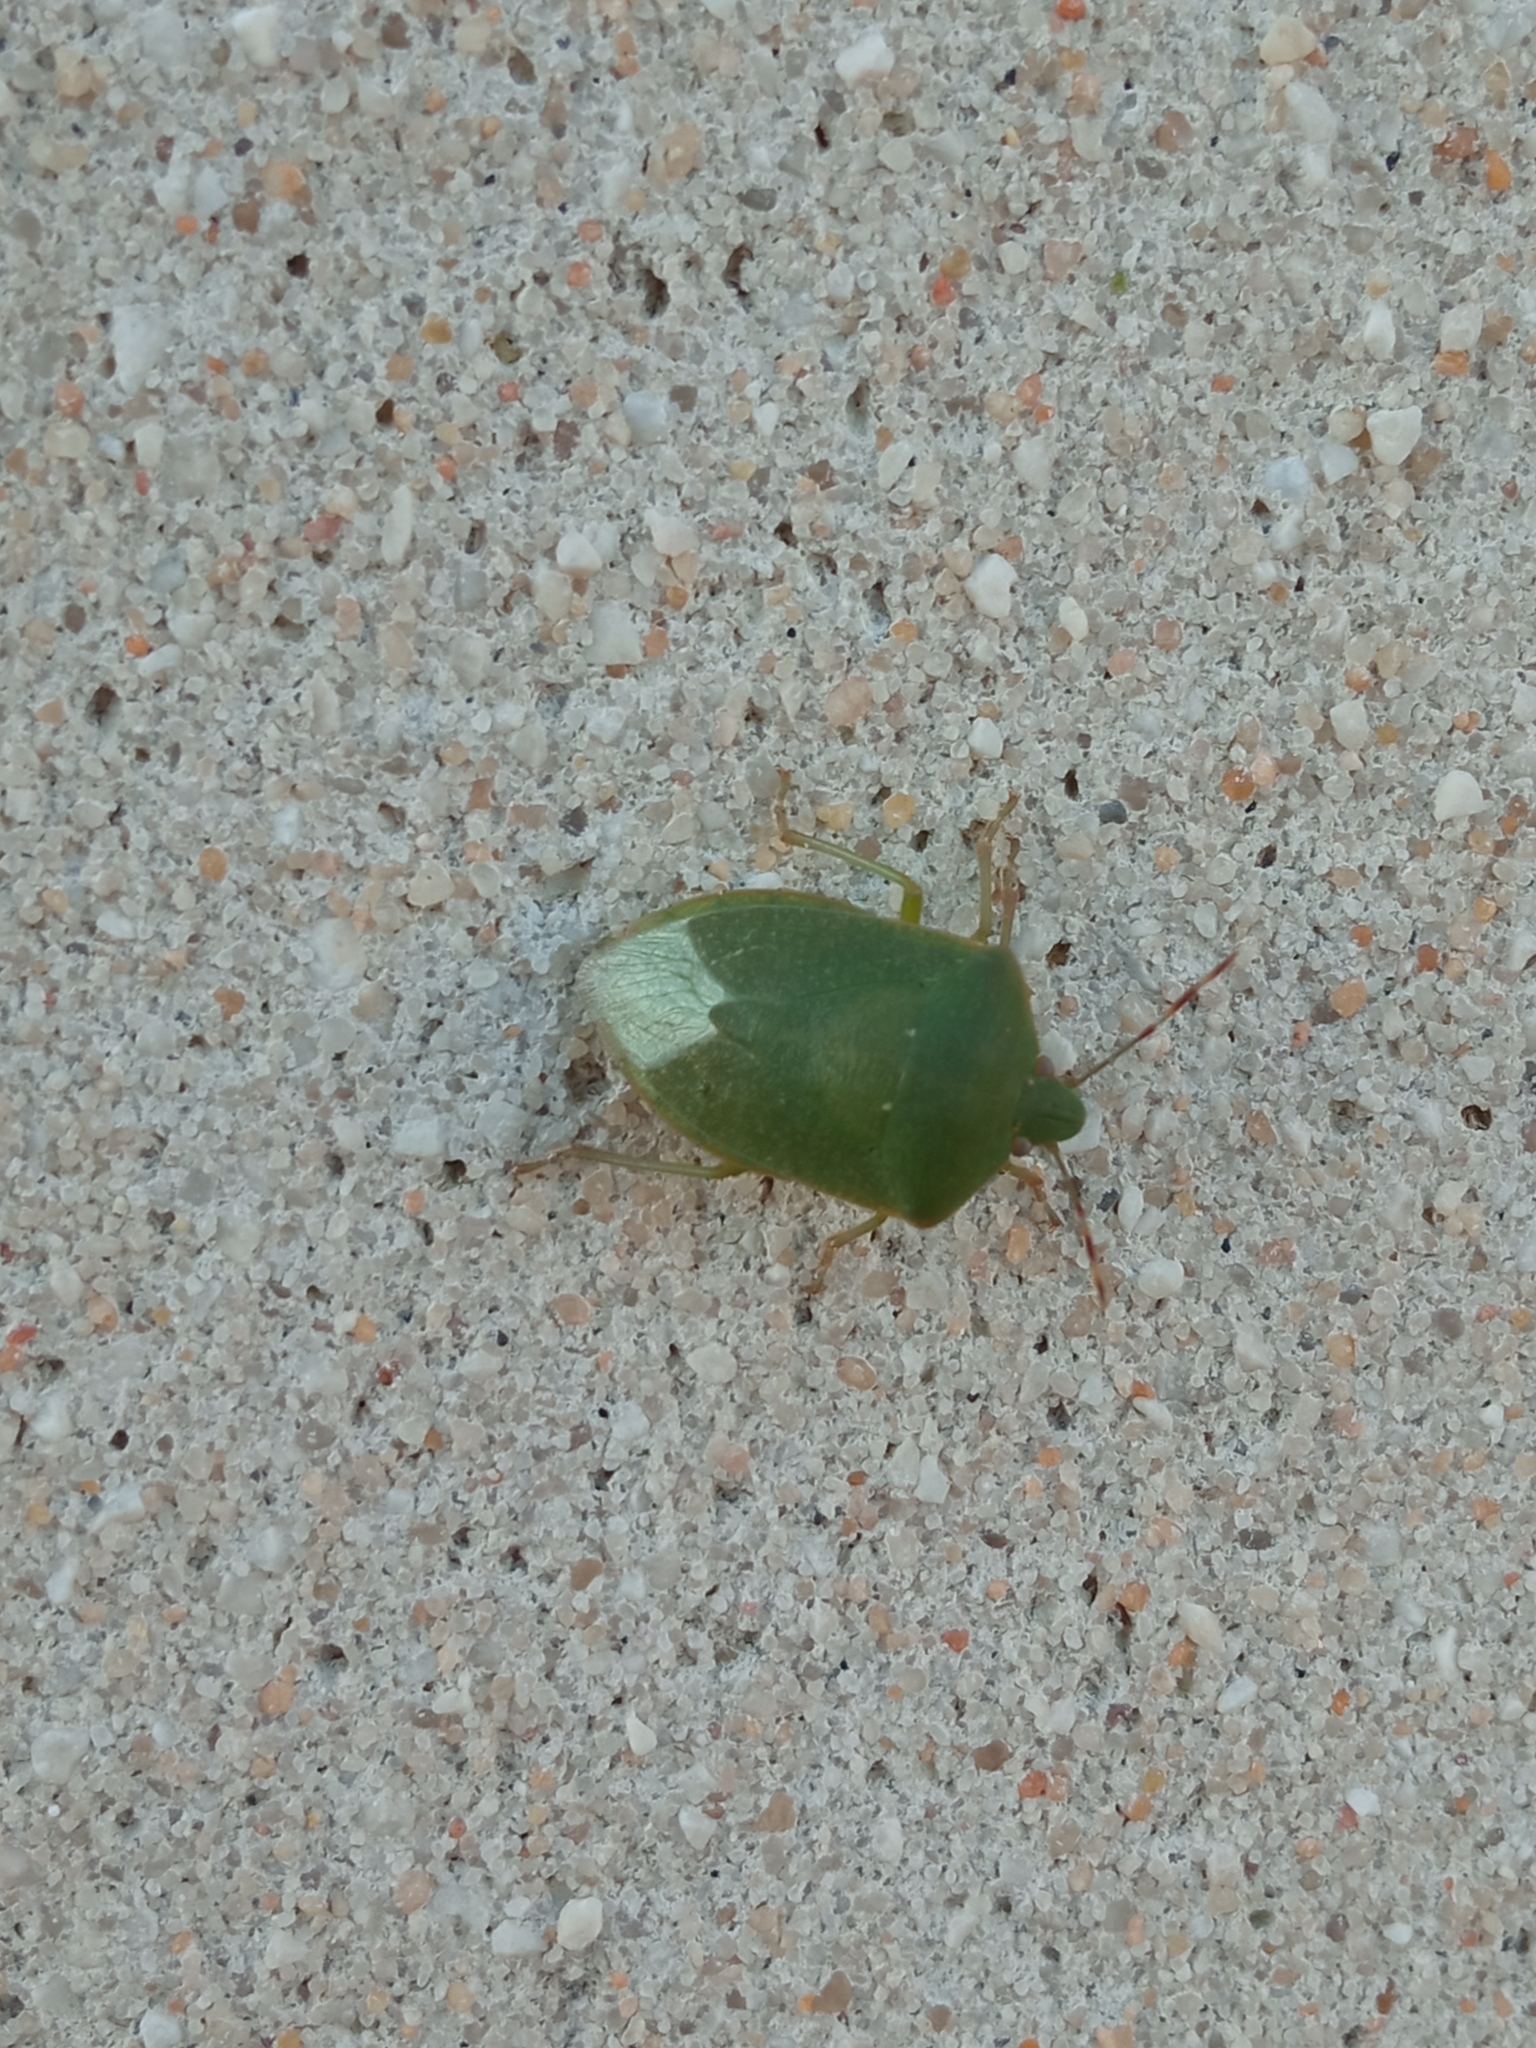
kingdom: Animalia
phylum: Arthropoda
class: Insecta
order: Hemiptera
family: Pentatomidae
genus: Nezara
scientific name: Nezara viridula
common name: Southern green stink bug
